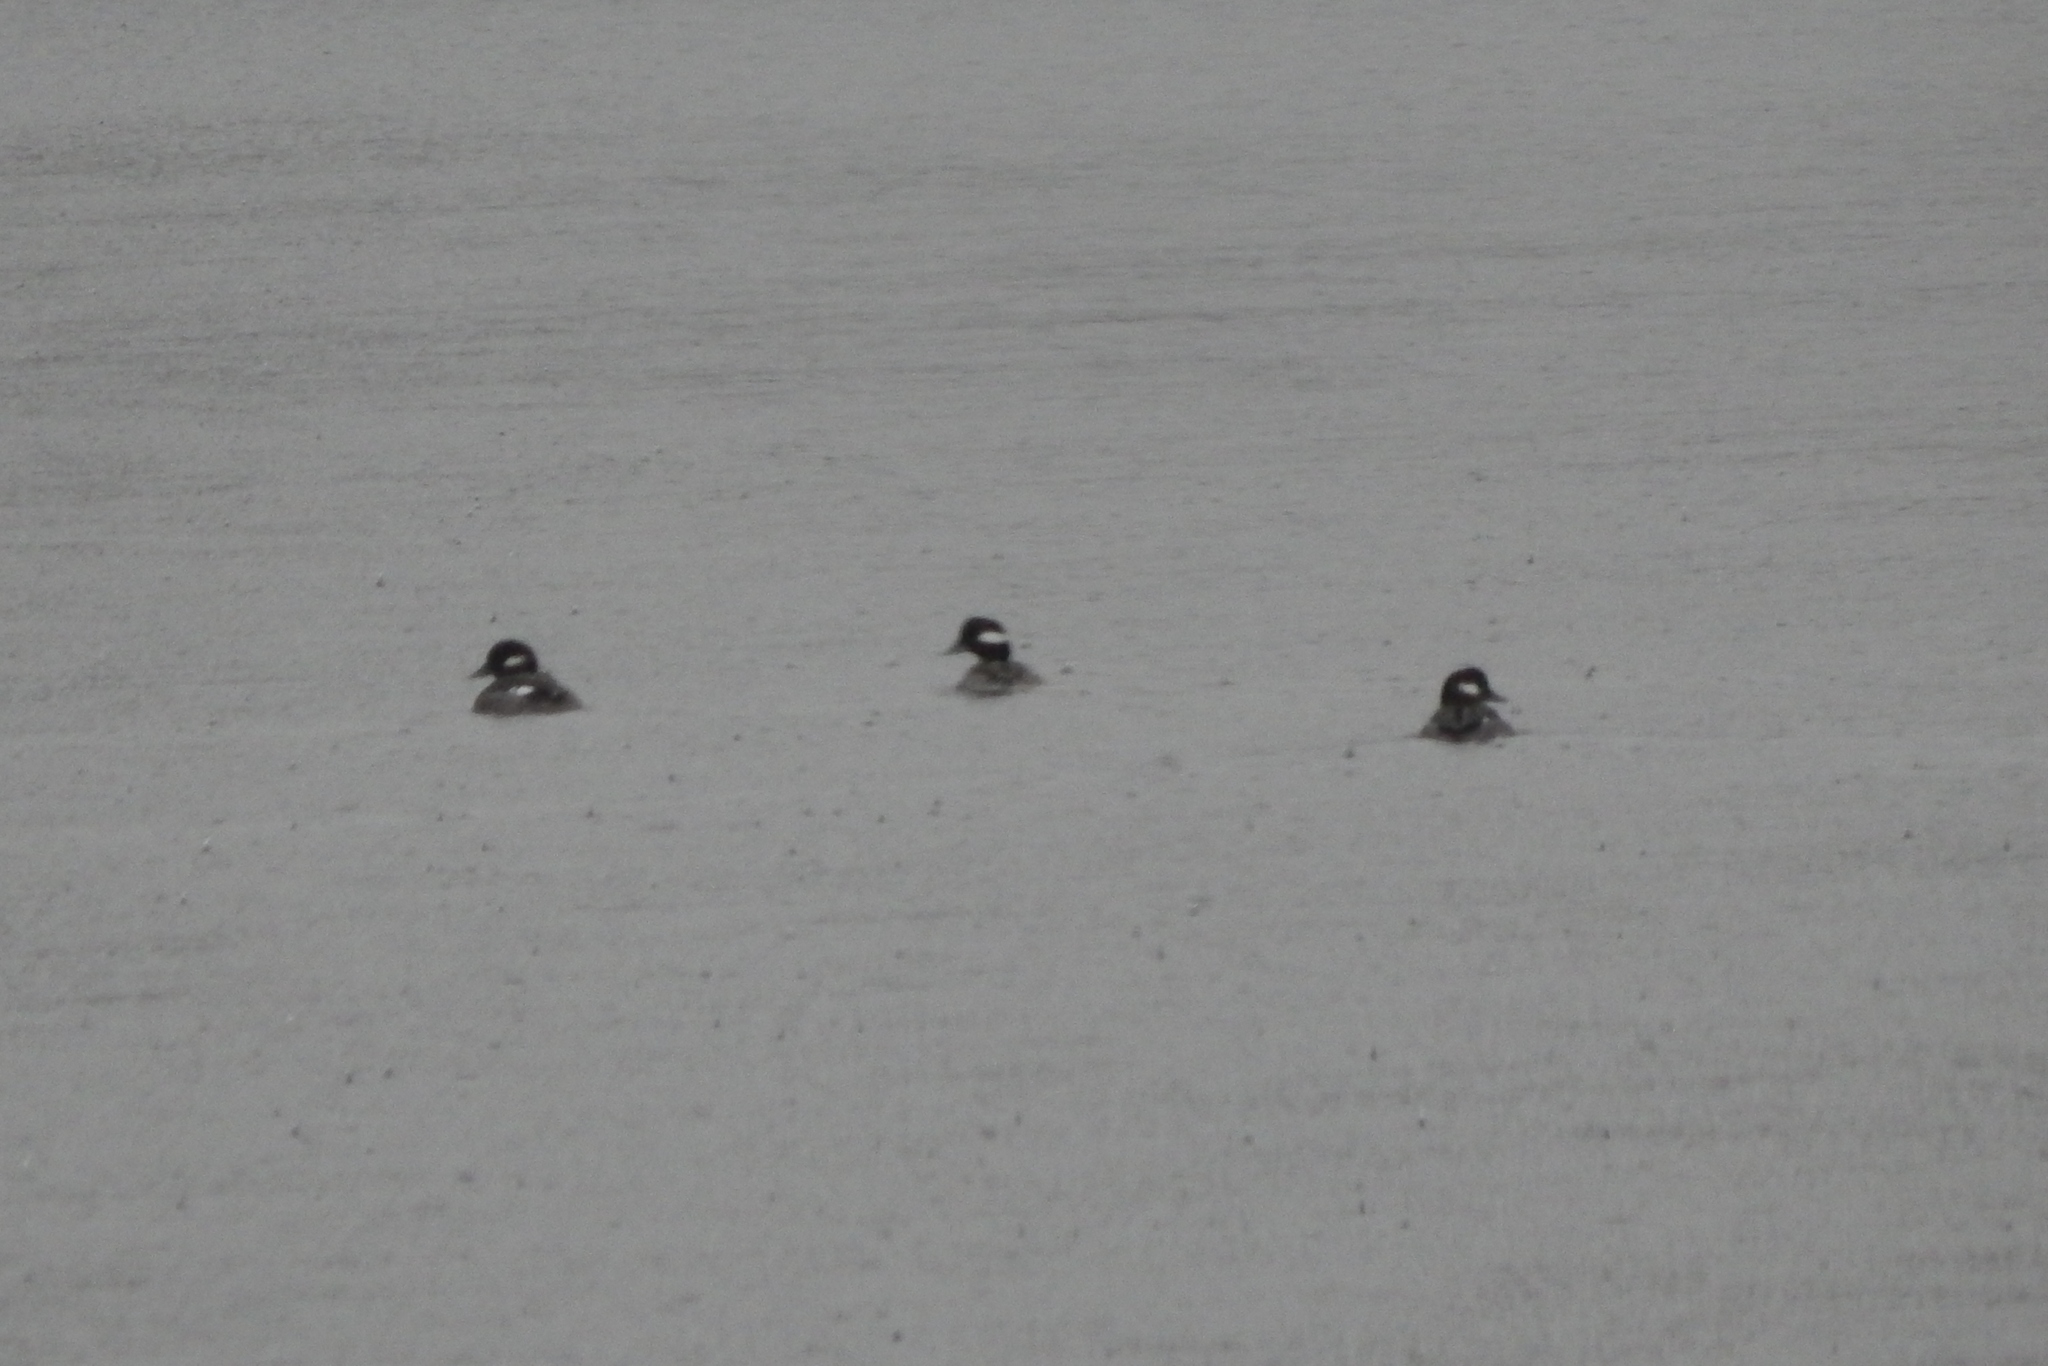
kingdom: Animalia
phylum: Chordata
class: Aves
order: Anseriformes
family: Anatidae
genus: Bucephala
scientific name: Bucephala albeola
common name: Bufflehead
